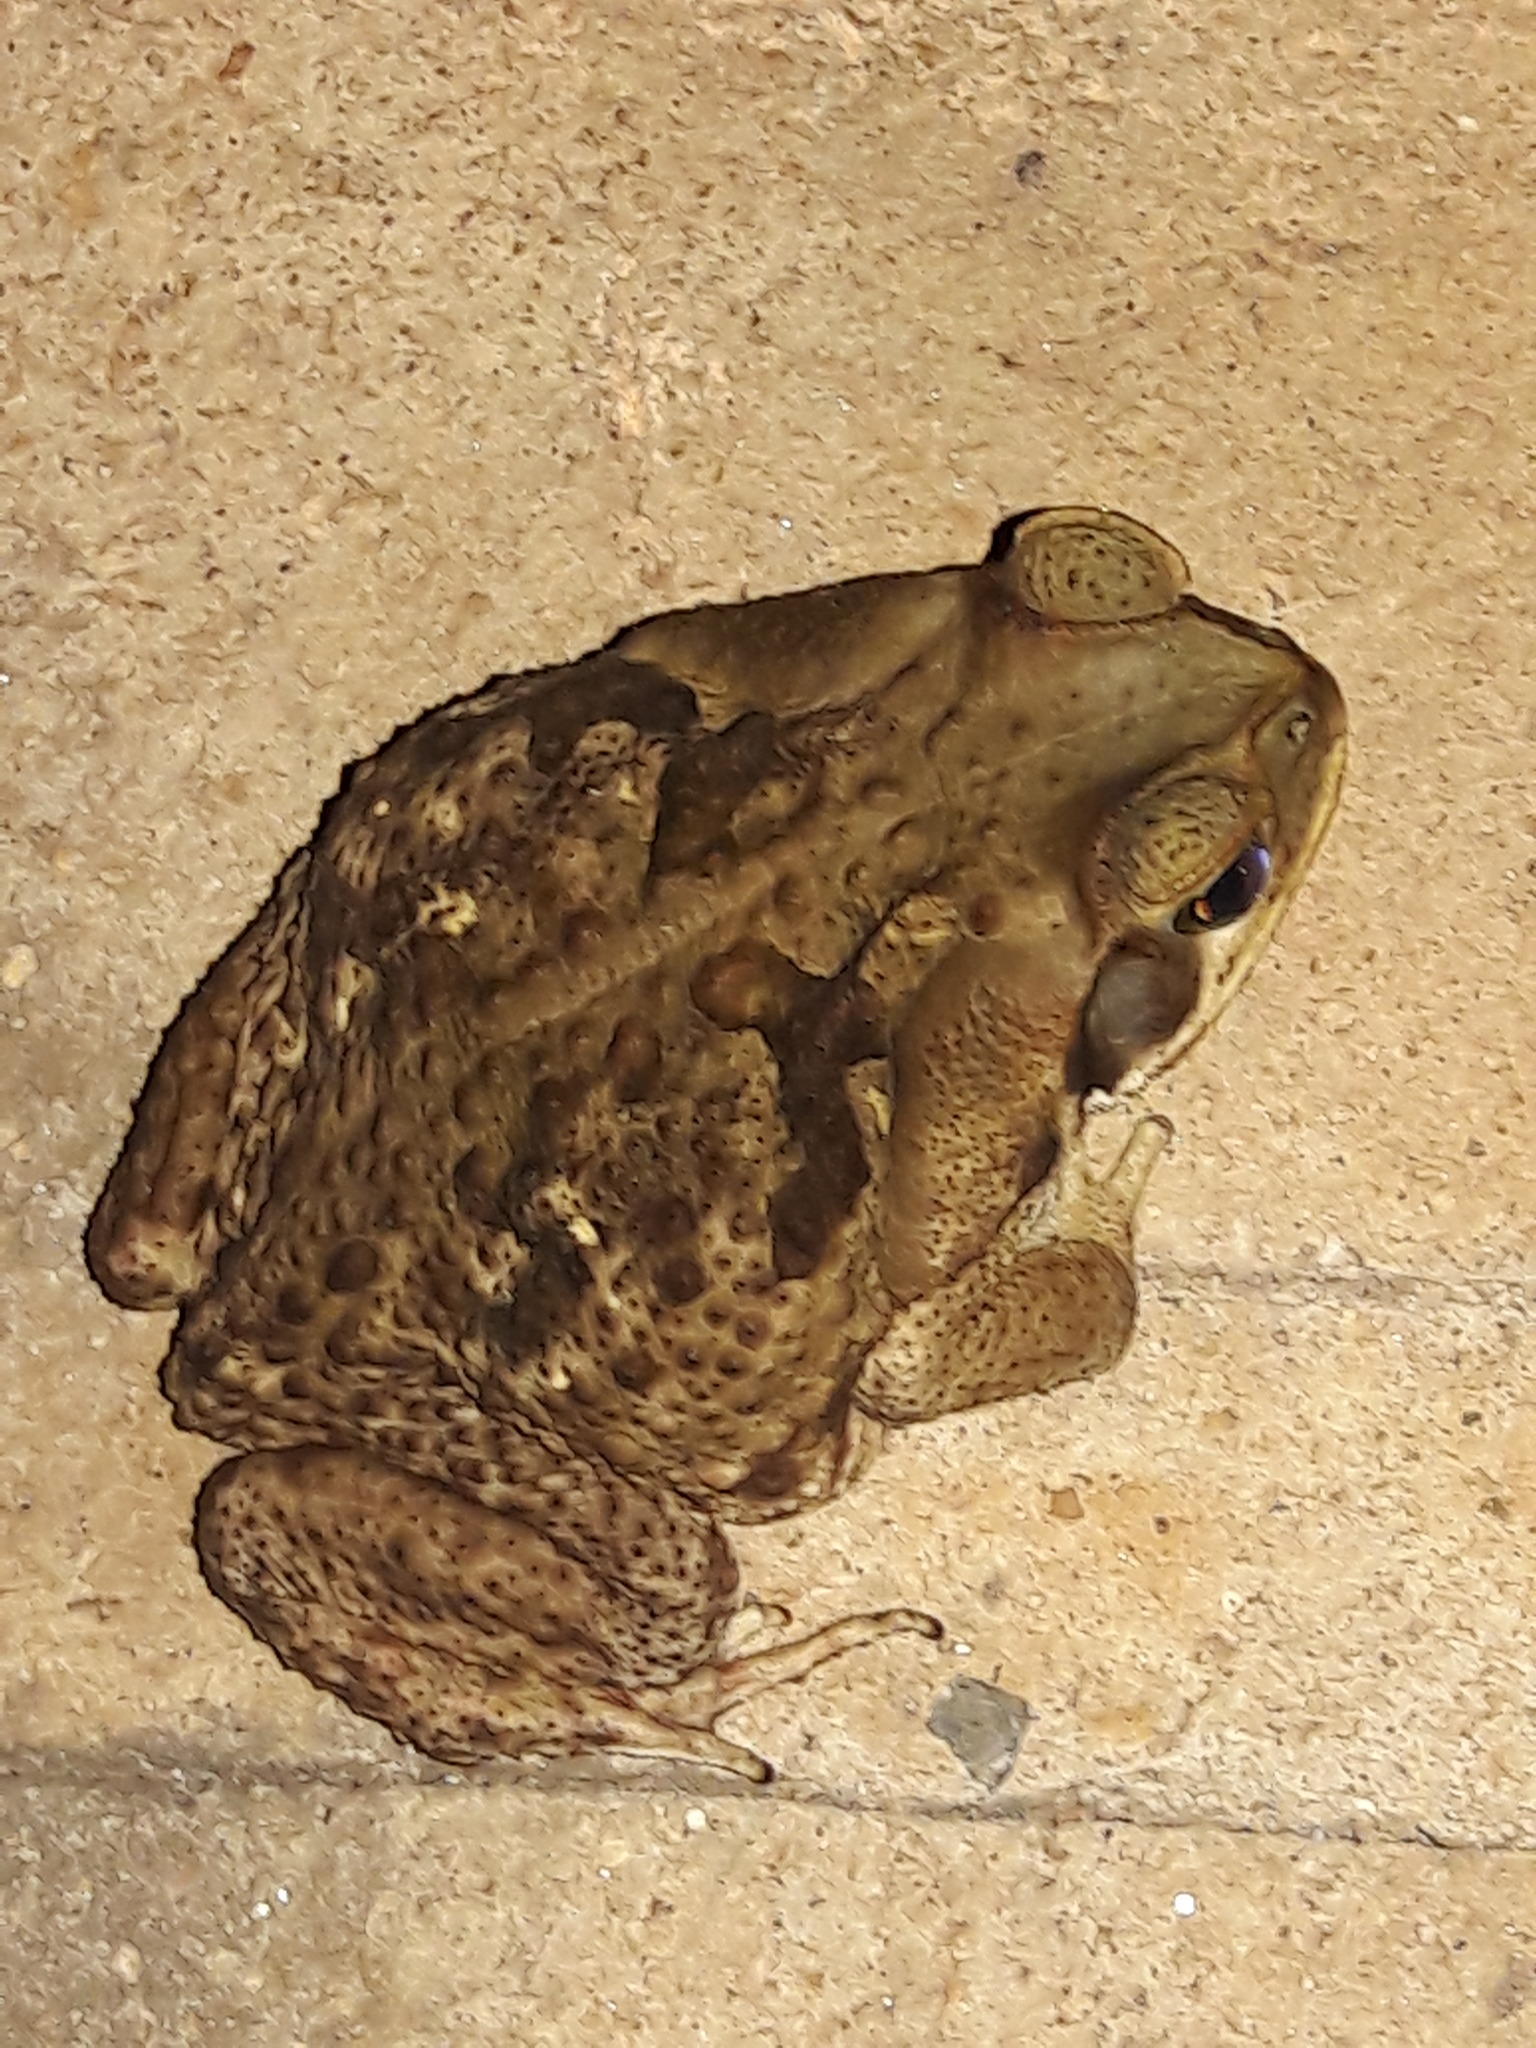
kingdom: Animalia
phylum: Chordata
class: Amphibia
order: Anura
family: Bufonidae
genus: Rhinella
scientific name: Rhinella diptycha
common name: Cope's toad
